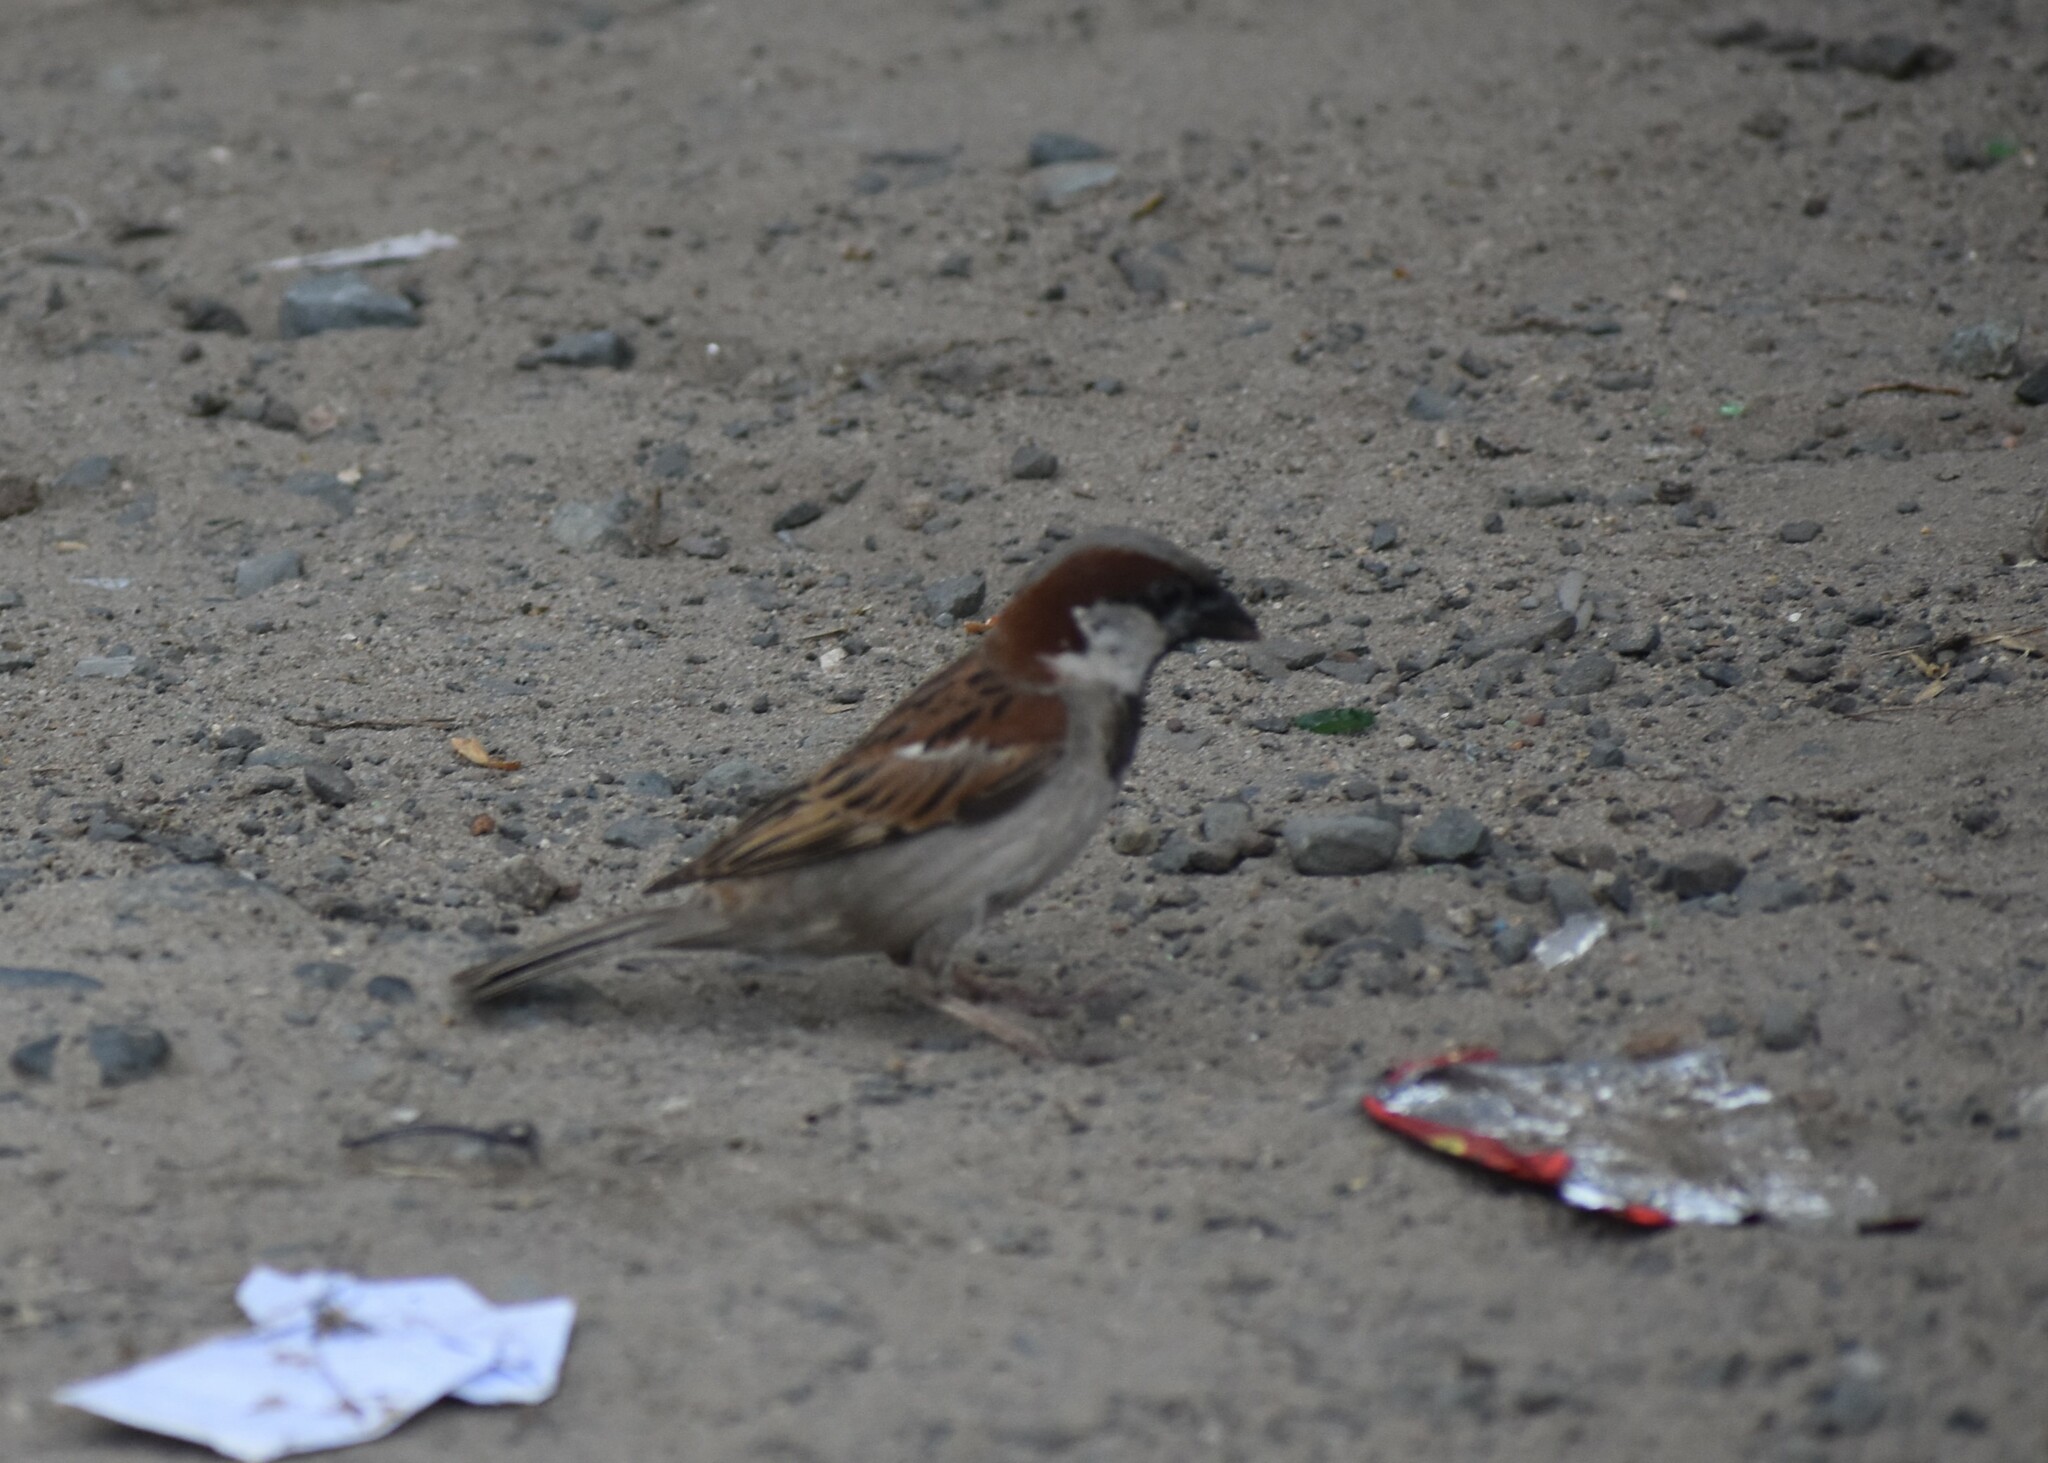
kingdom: Animalia
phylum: Chordata
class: Aves
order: Passeriformes
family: Passeridae
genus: Passer
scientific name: Passer domesticus
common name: House sparrow
